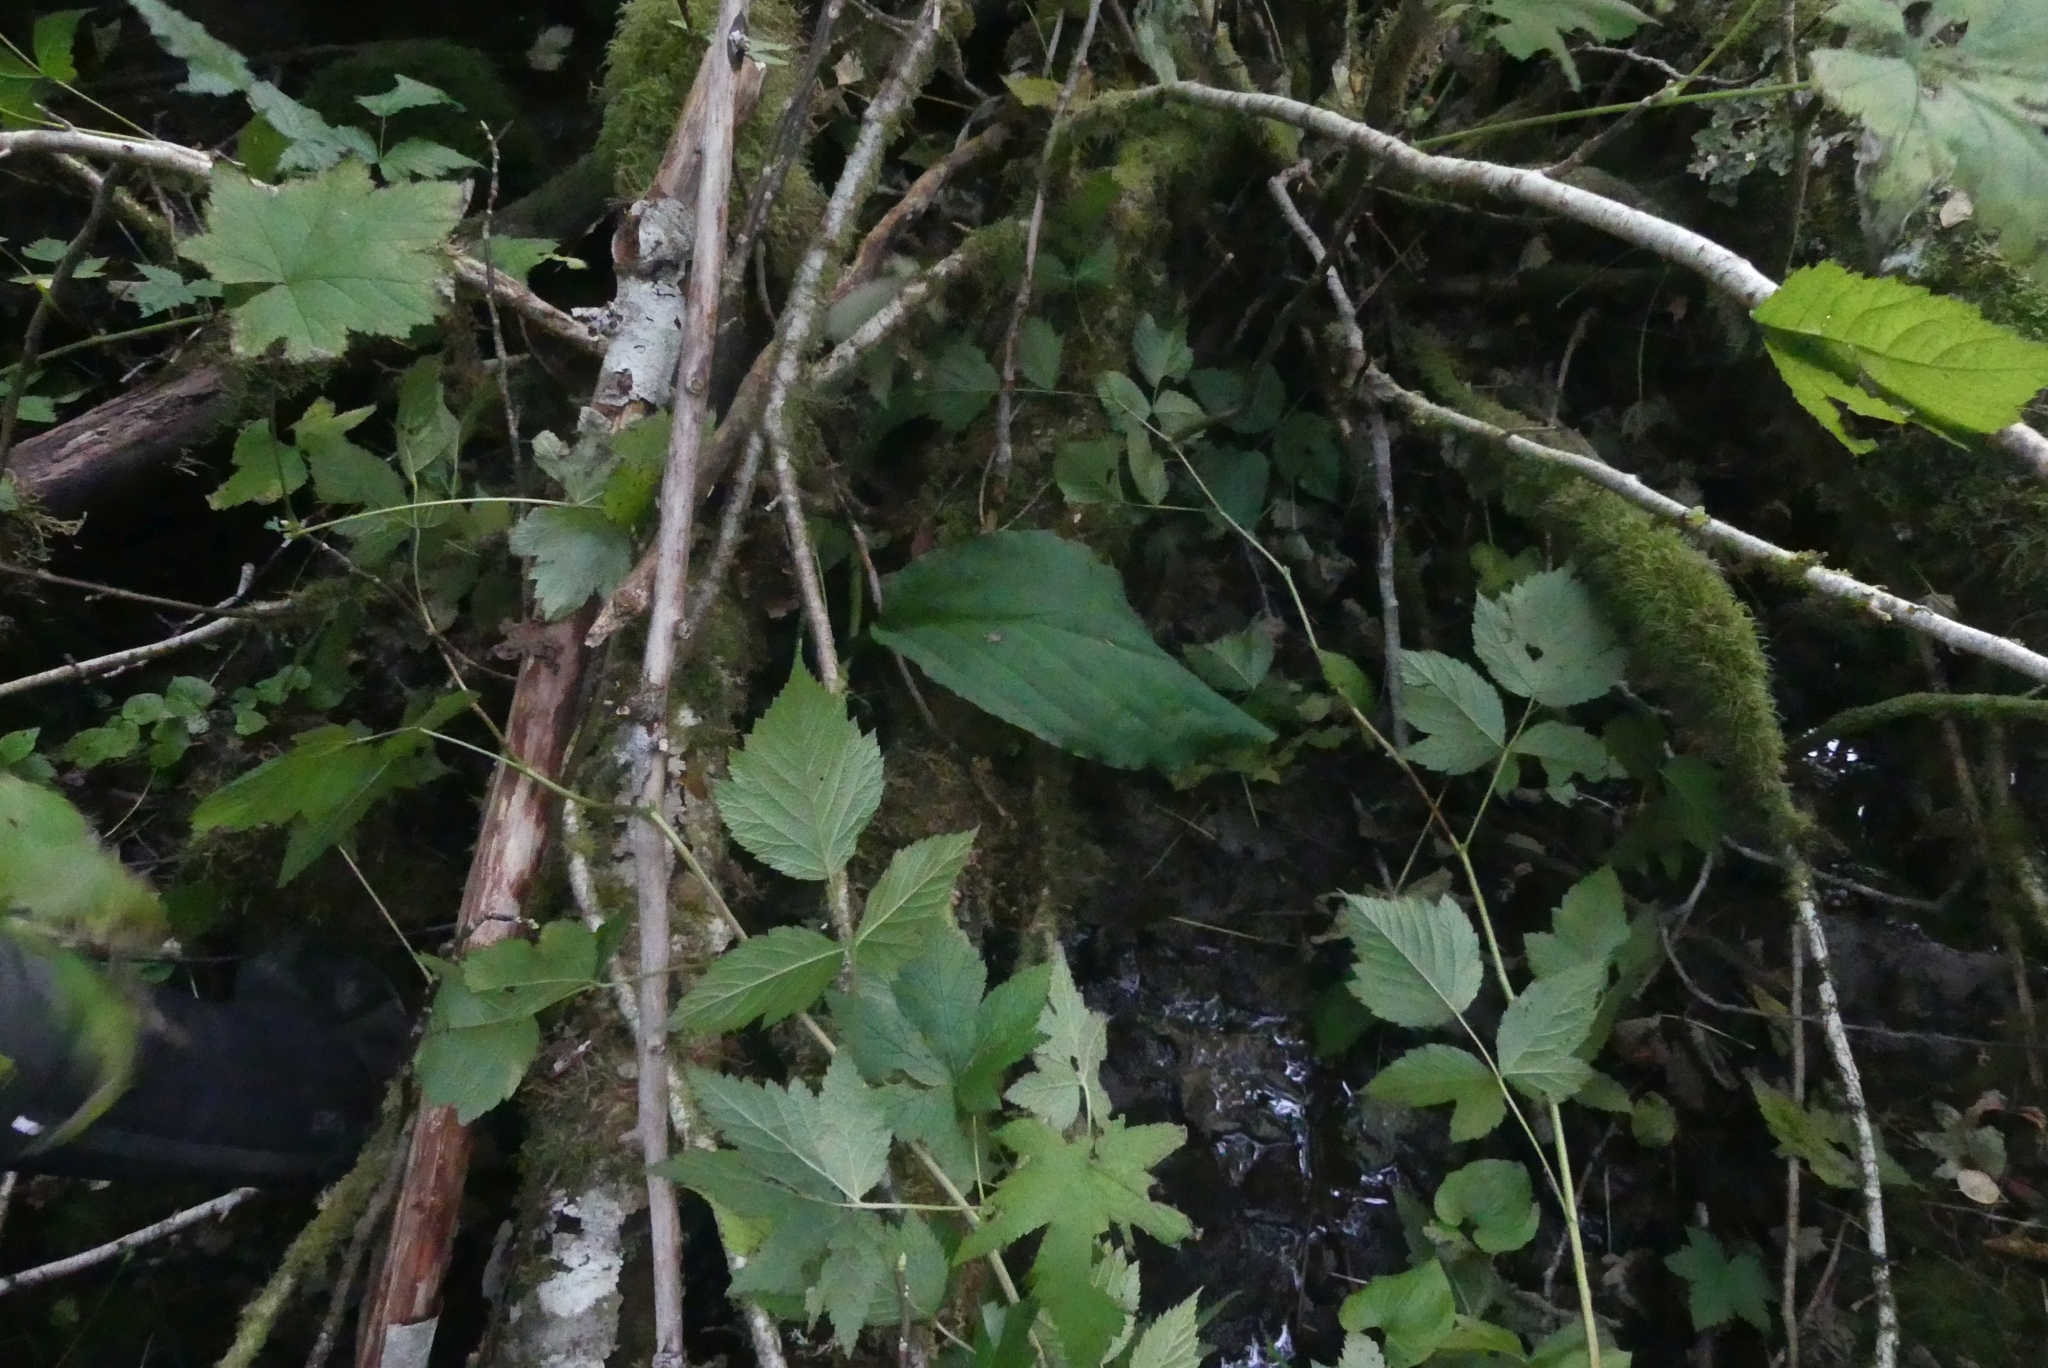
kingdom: Plantae
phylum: Tracheophyta
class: Liliopsida
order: Alismatales
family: Araceae
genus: Lysichiton
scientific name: Lysichiton americanus
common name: American skunk cabbage
